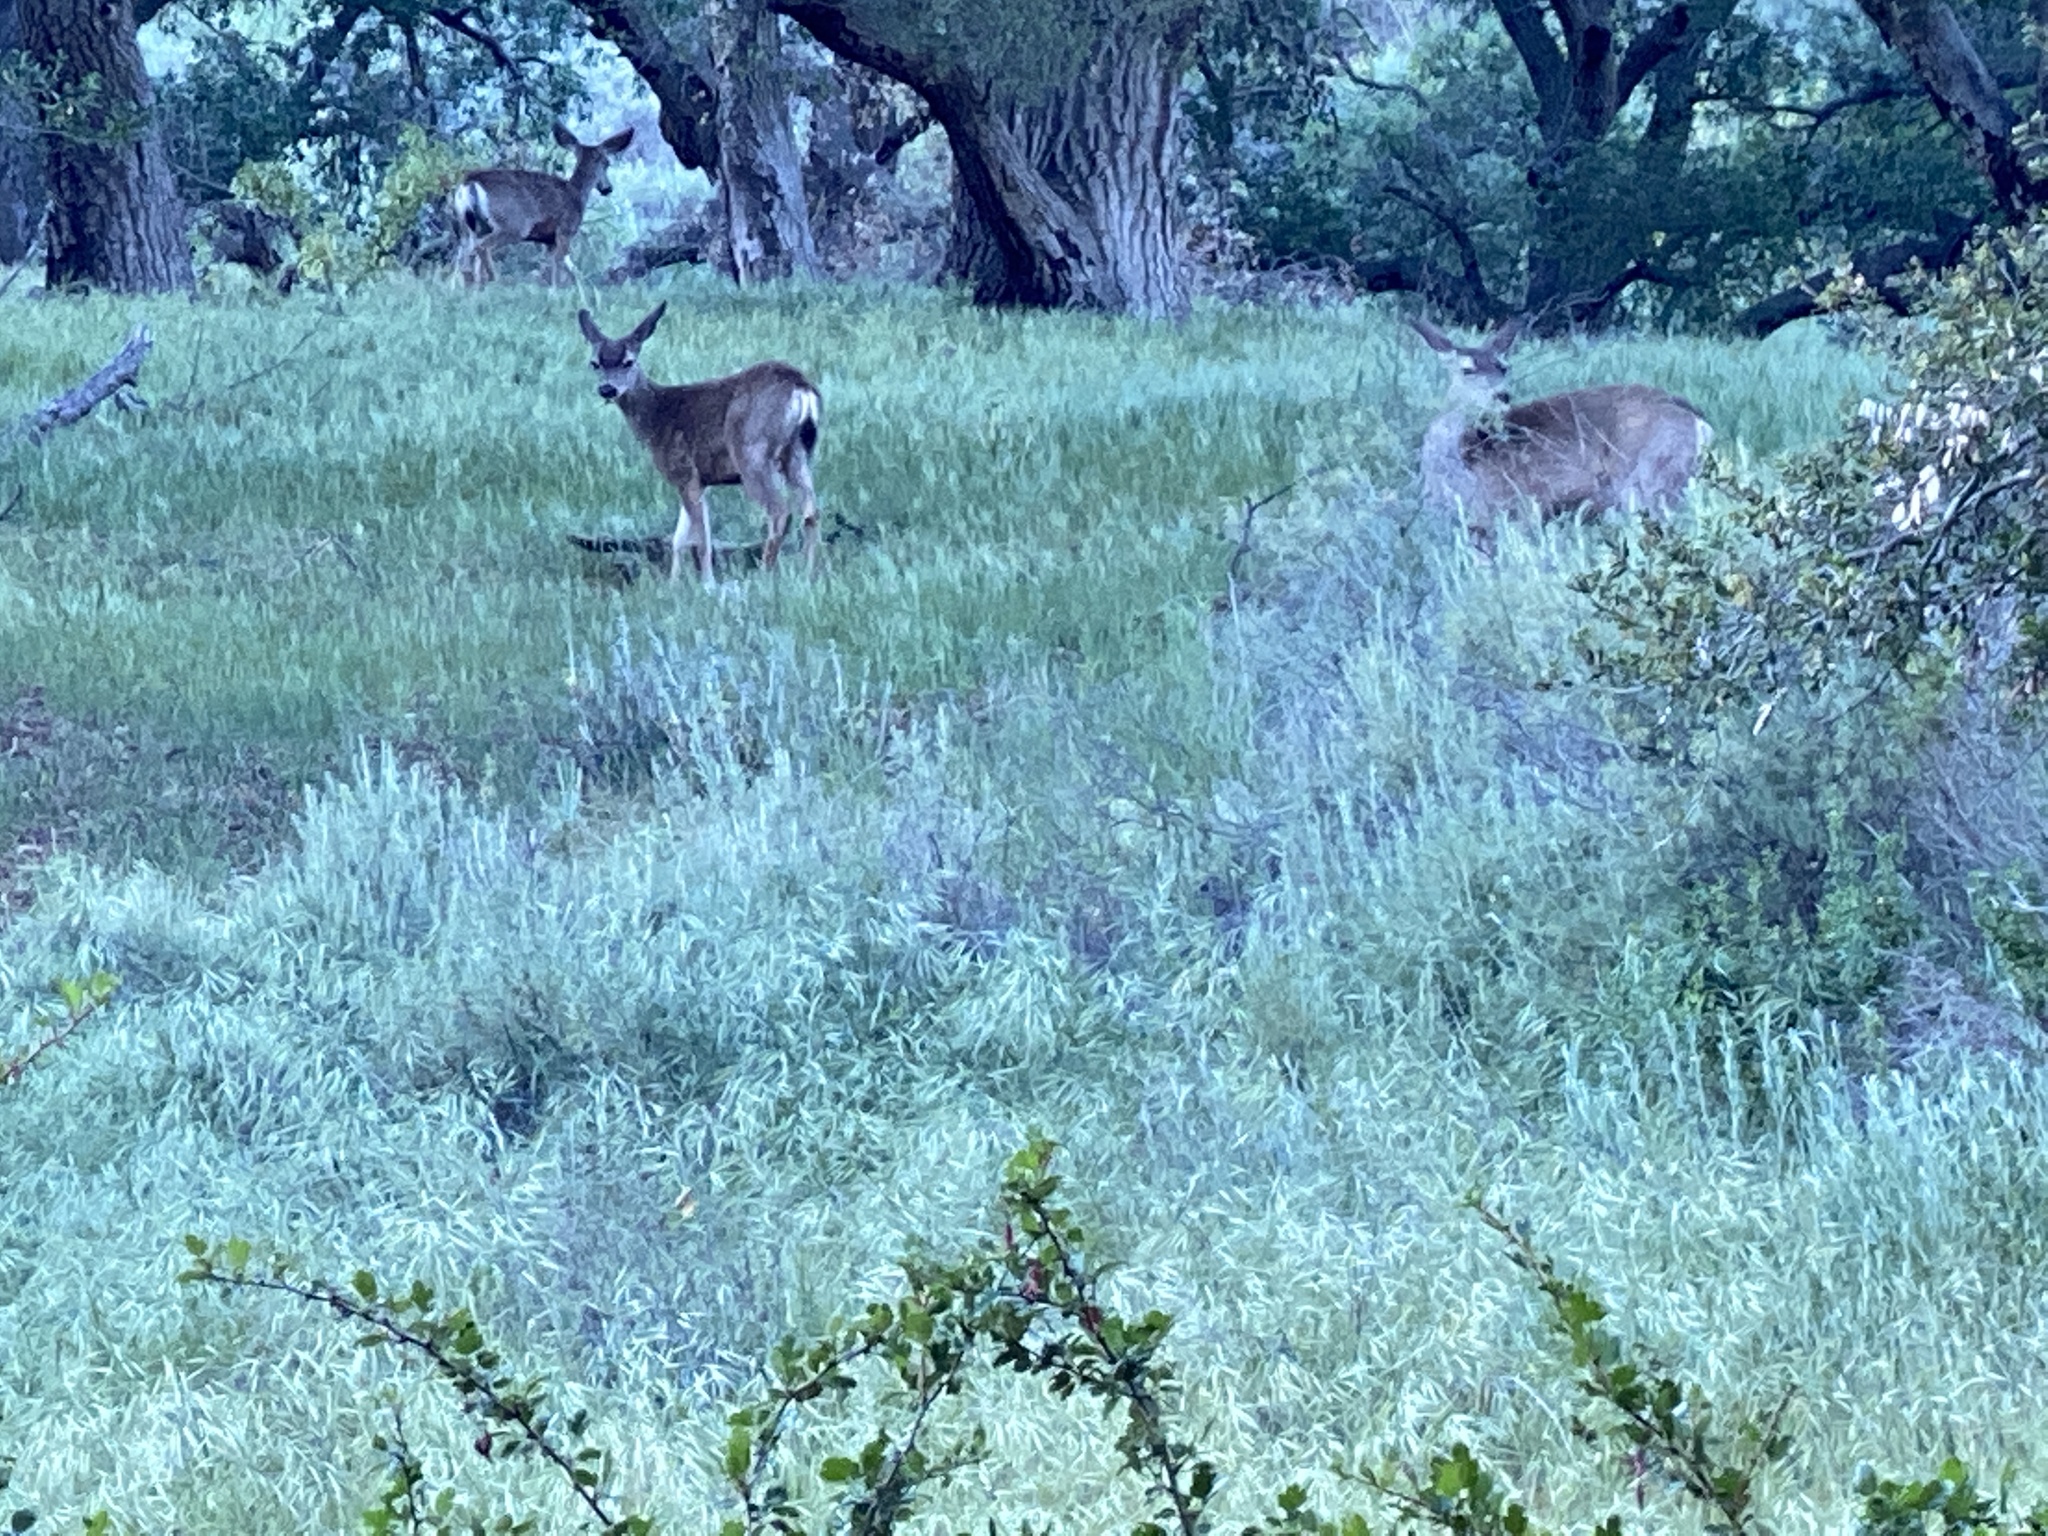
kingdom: Animalia
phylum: Chordata
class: Mammalia
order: Artiodactyla
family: Cervidae
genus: Odocoileus
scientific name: Odocoileus hemionus
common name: Mule deer
